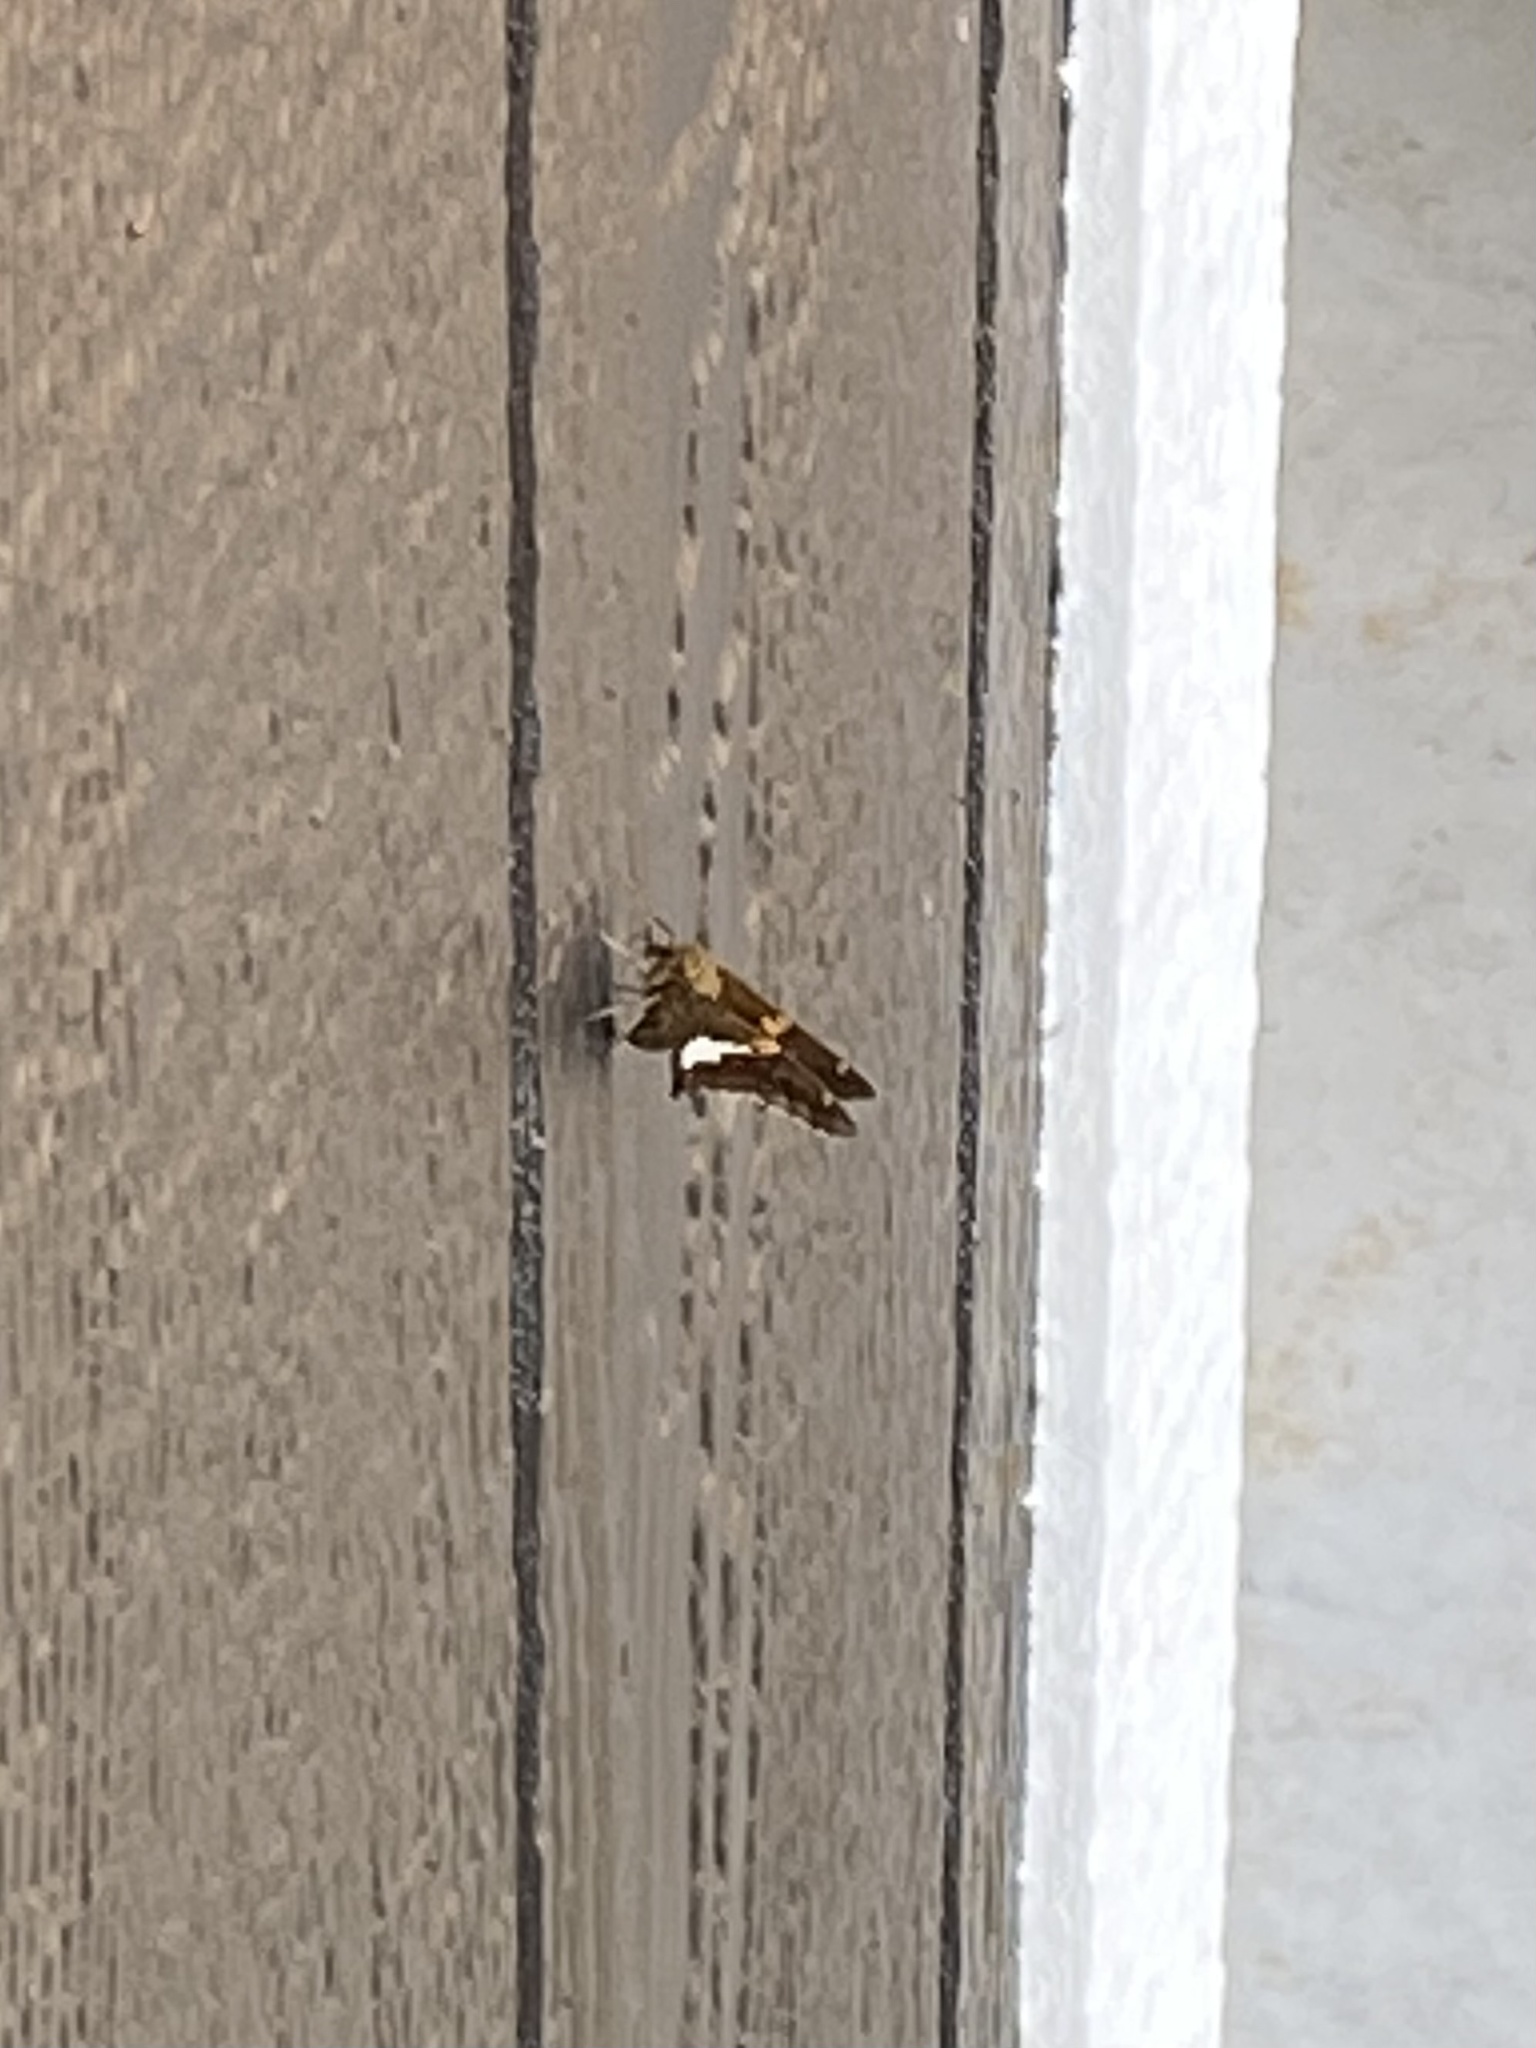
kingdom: Animalia
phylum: Arthropoda
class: Insecta
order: Lepidoptera
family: Hesperiidae
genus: Epargyreus
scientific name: Epargyreus clarus
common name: Silver-spotted skipper
